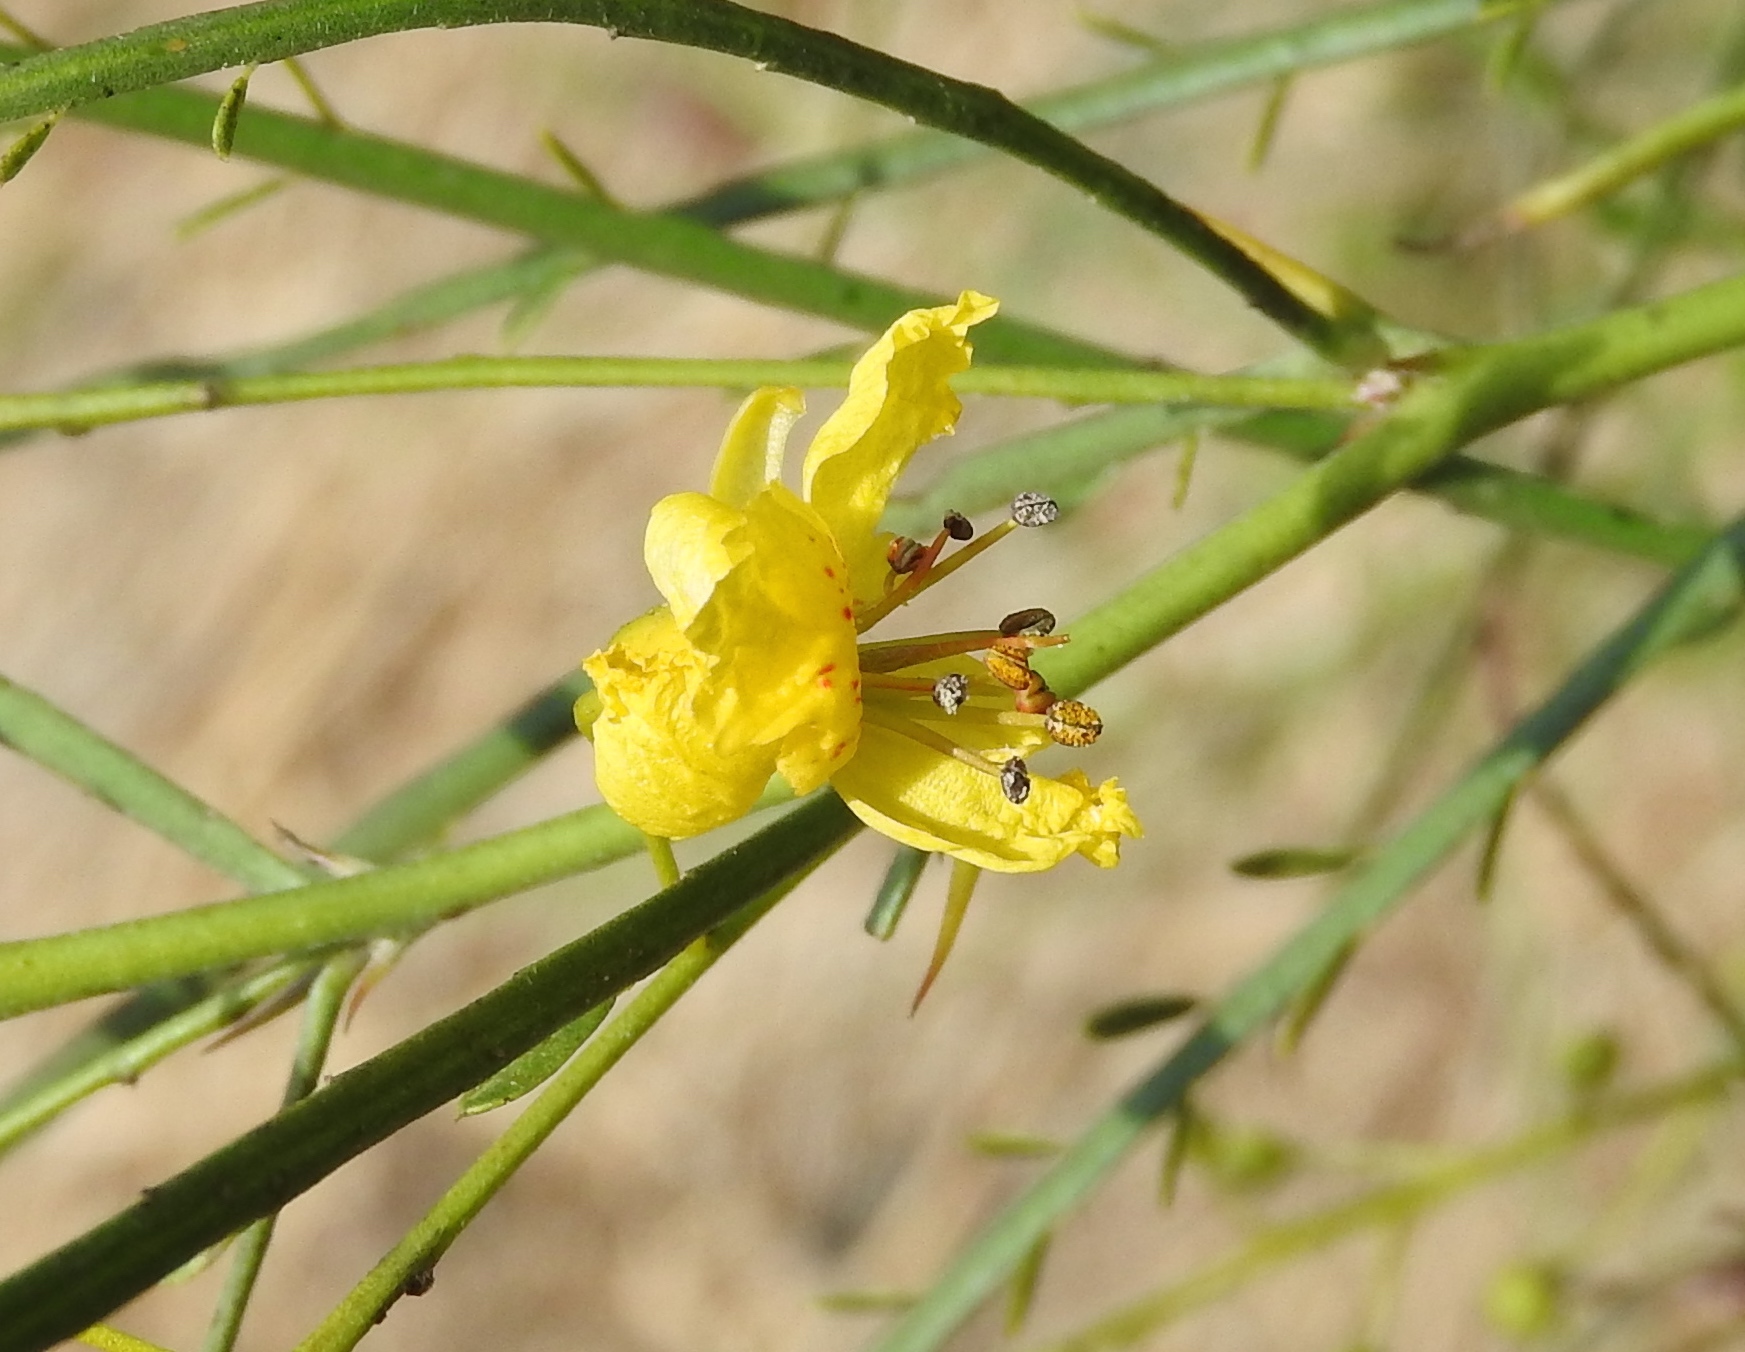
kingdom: Plantae
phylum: Tracheophyta
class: Magnoliopsida
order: Fabales
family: Fabaceae
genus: Parkinsonia
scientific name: Parkinsonia aculeata
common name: Jerusalem thorn
